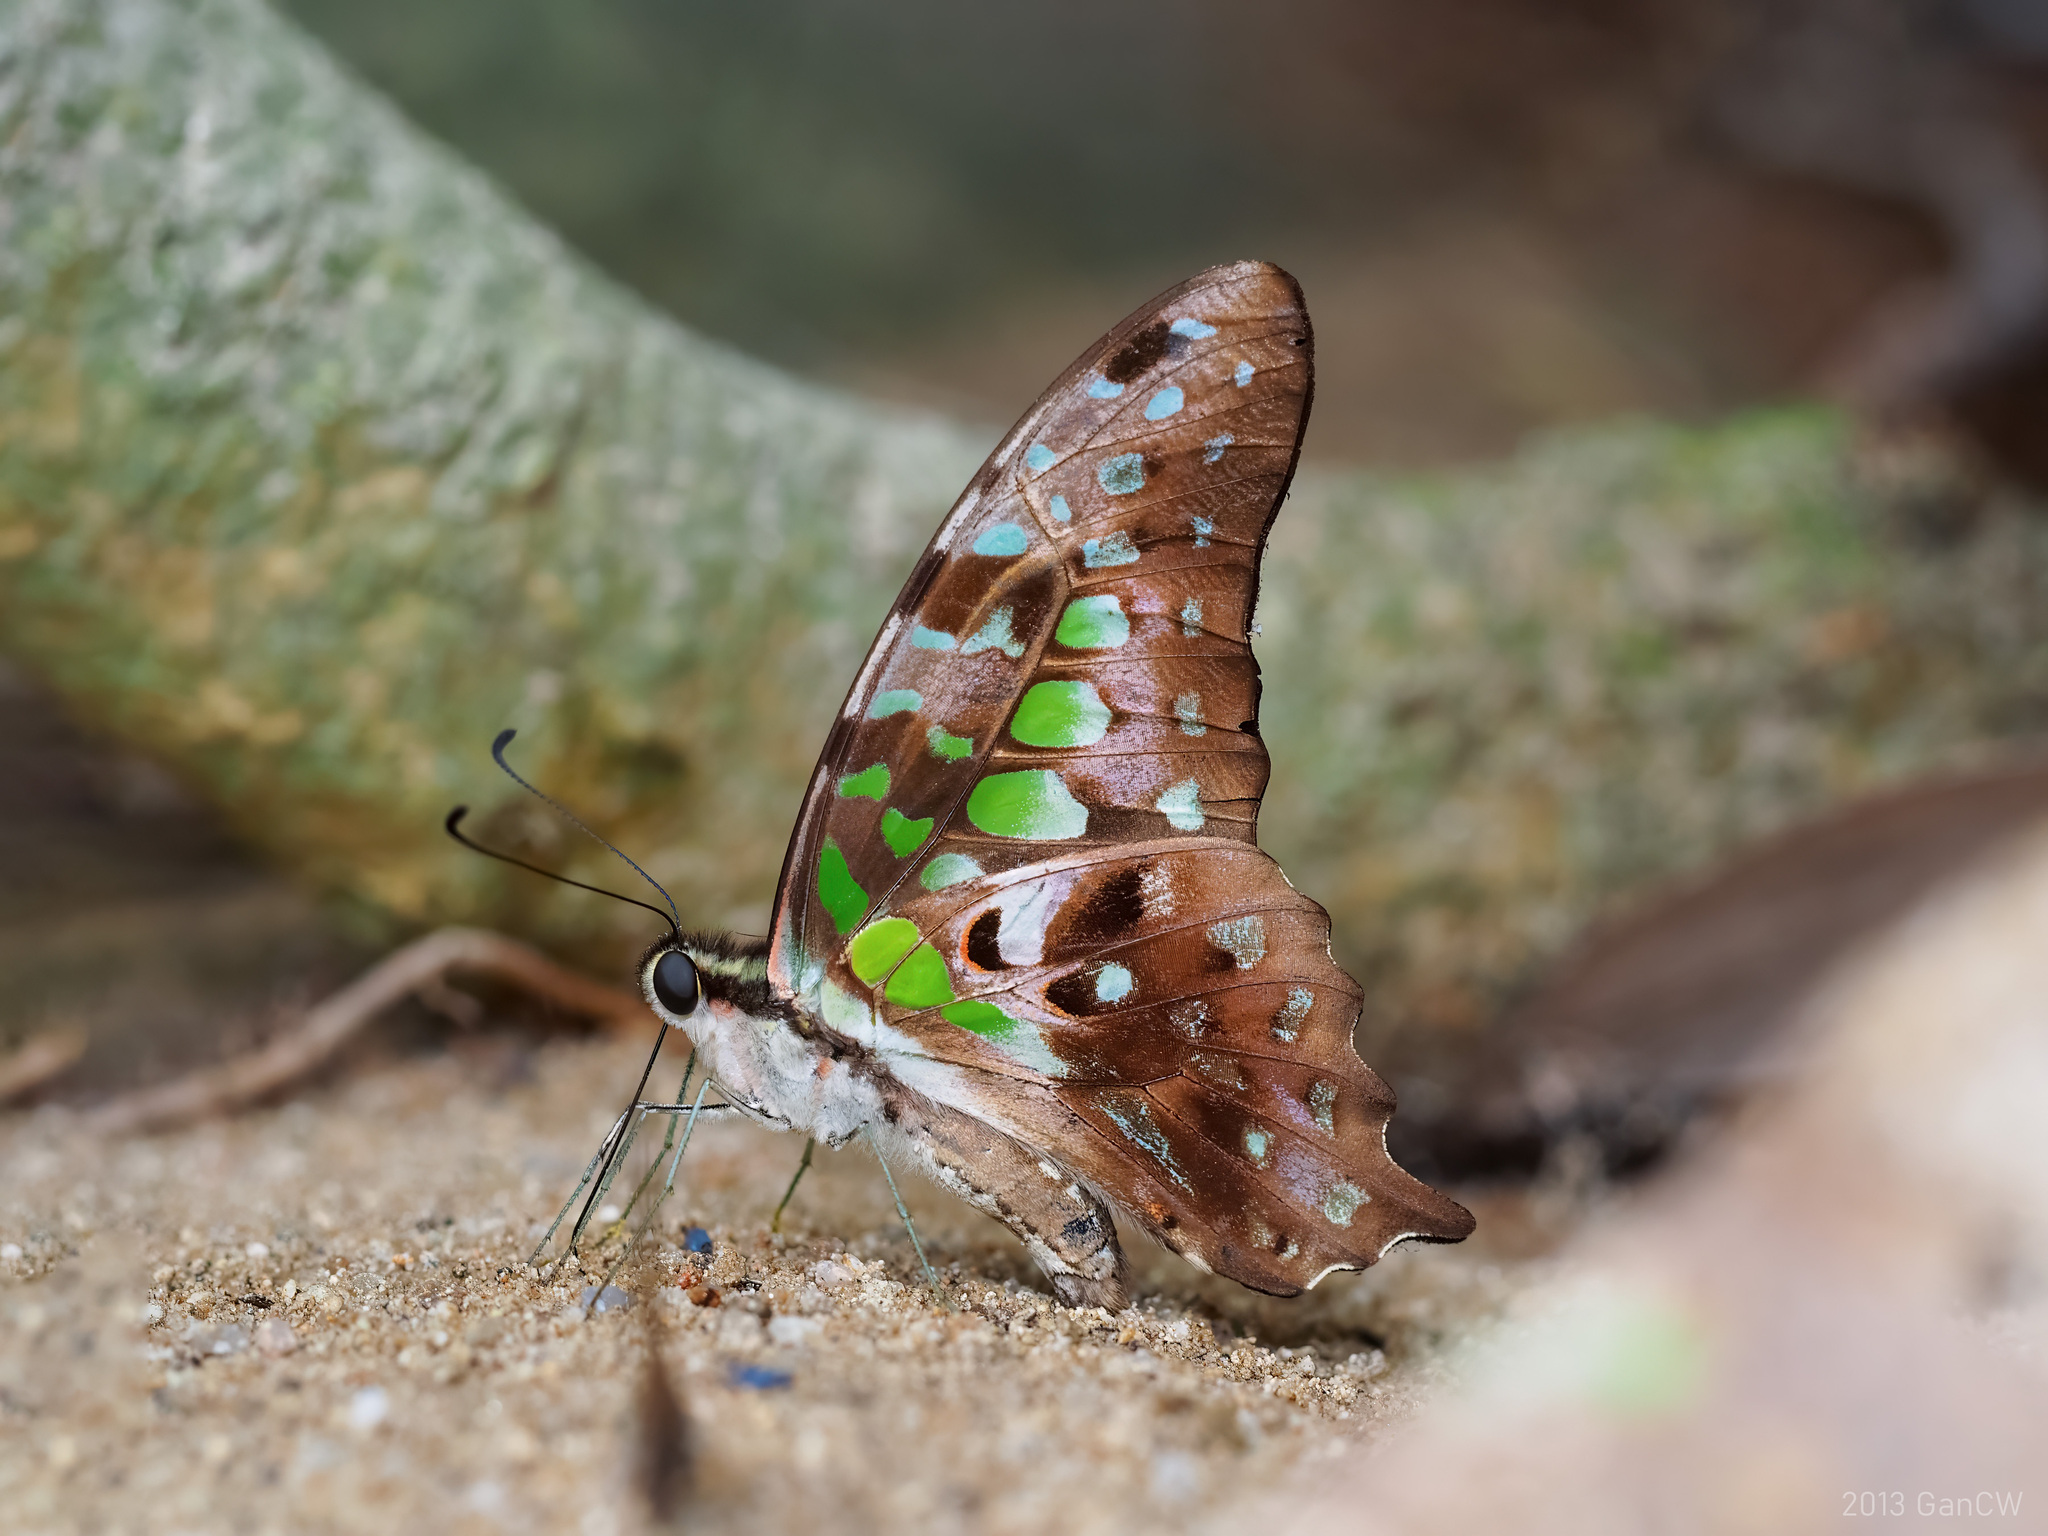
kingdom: Animalia
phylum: Arthropoda
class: Insecta
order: Lepidoptera
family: Papilionidae
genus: Graphium
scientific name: Graphium agamemnon
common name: Tailed jay
